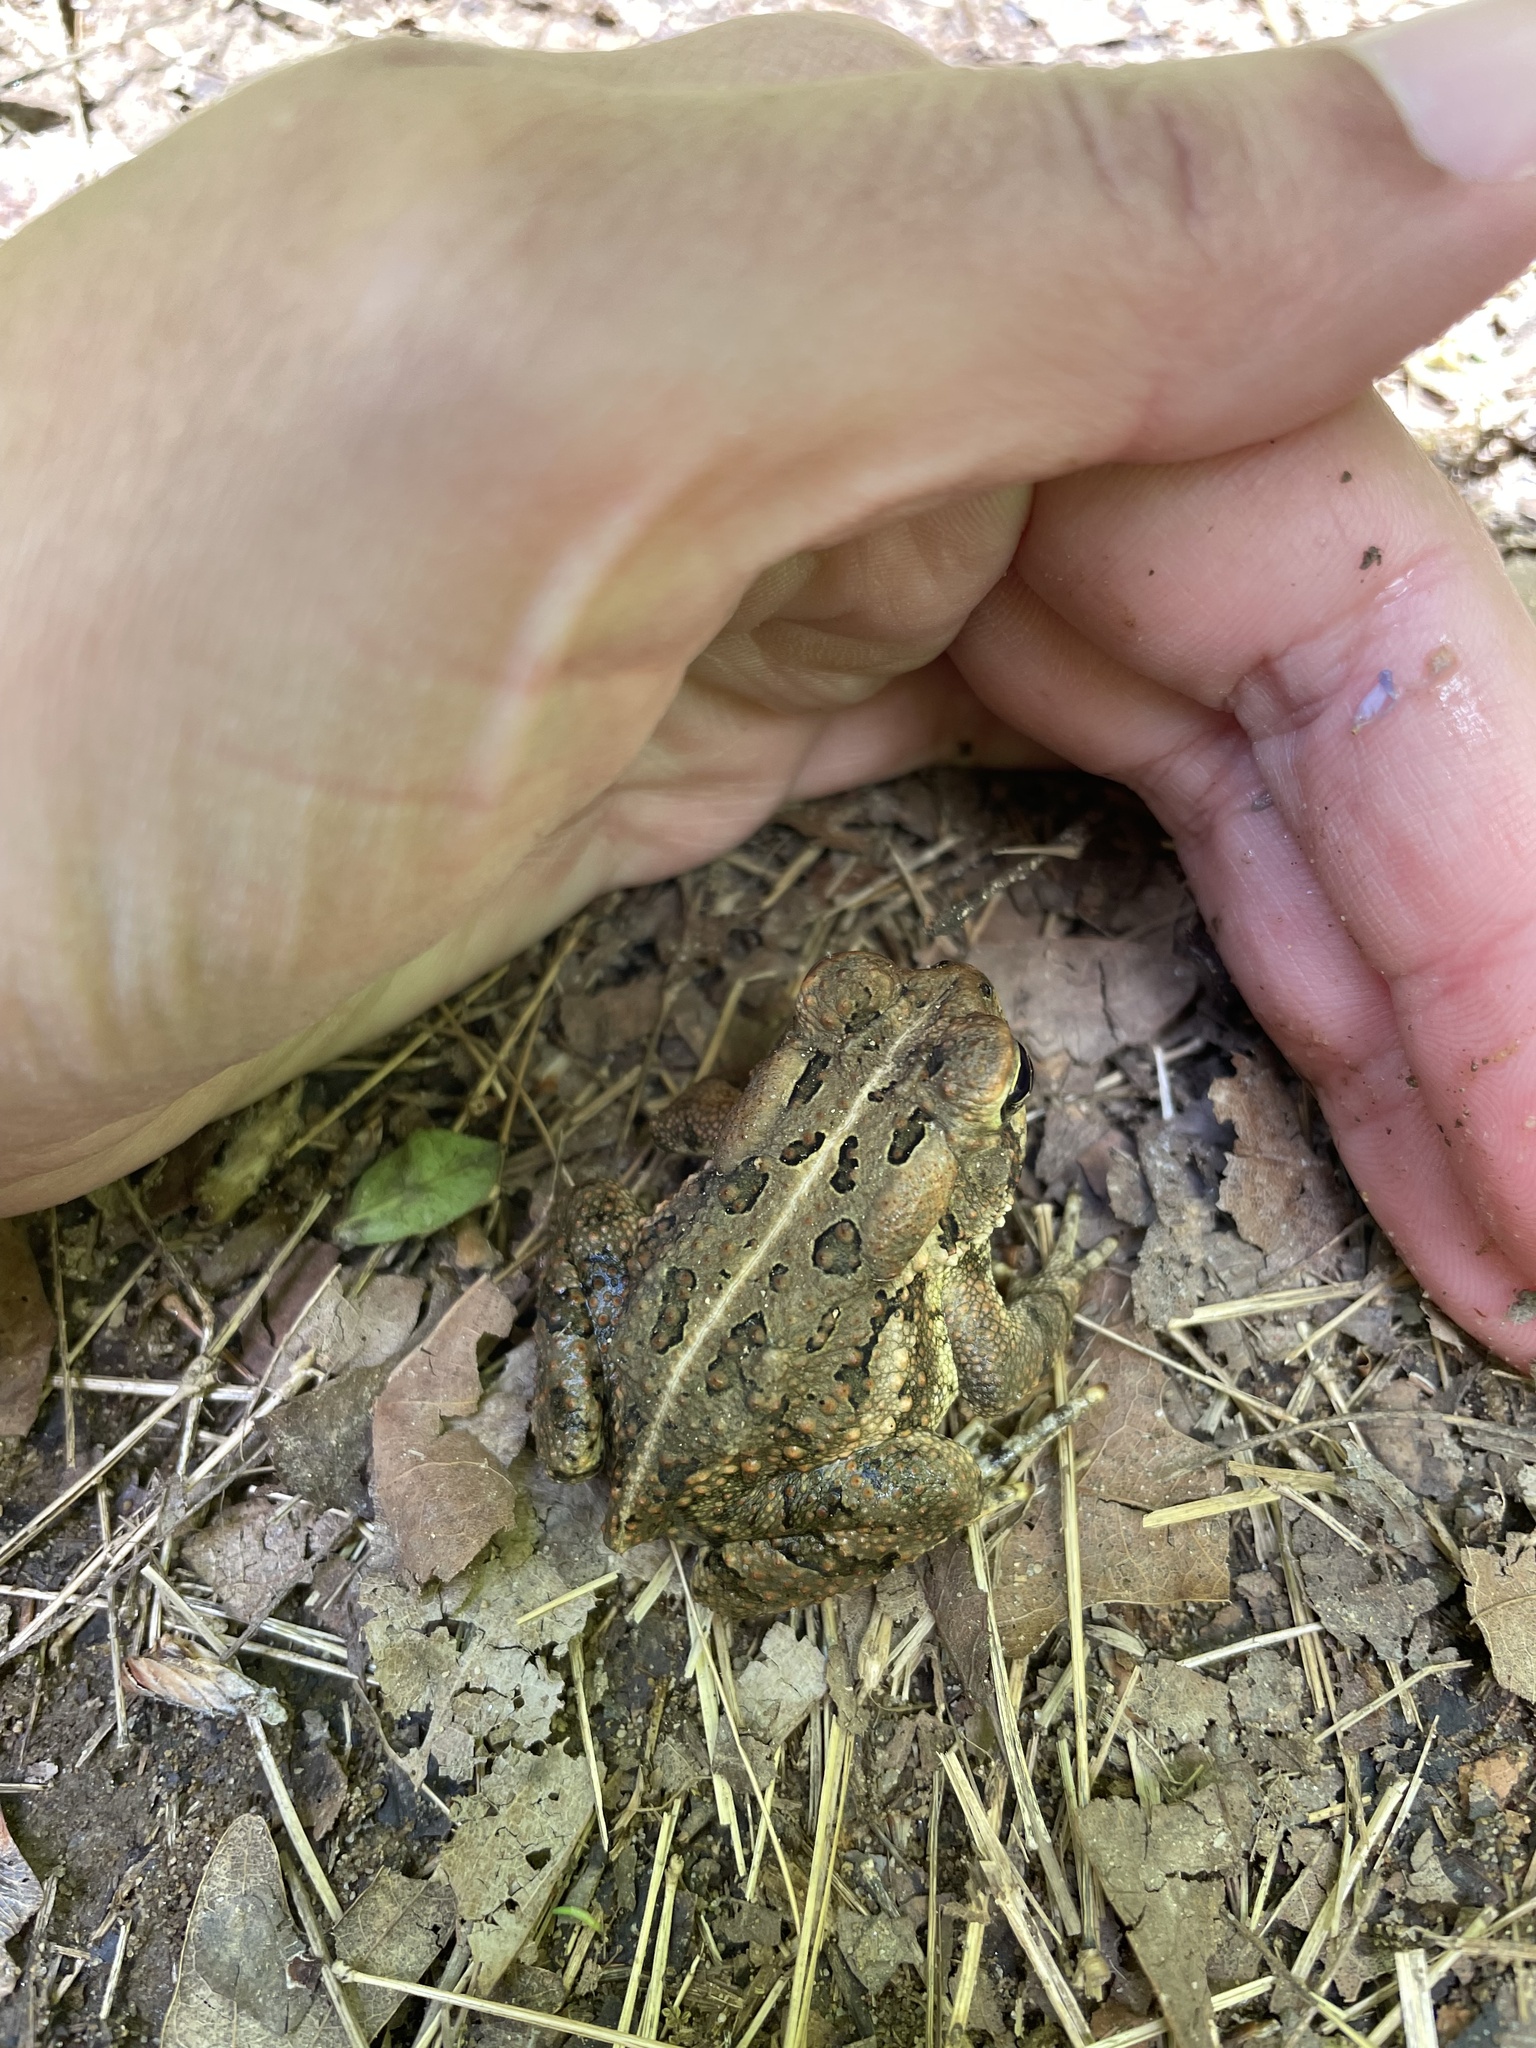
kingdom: Animalia
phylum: Chordata
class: Amphibia
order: Anura
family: Bufonidae
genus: Anaxyrus
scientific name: Anaxyrus fowleri
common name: Fowler's toad
